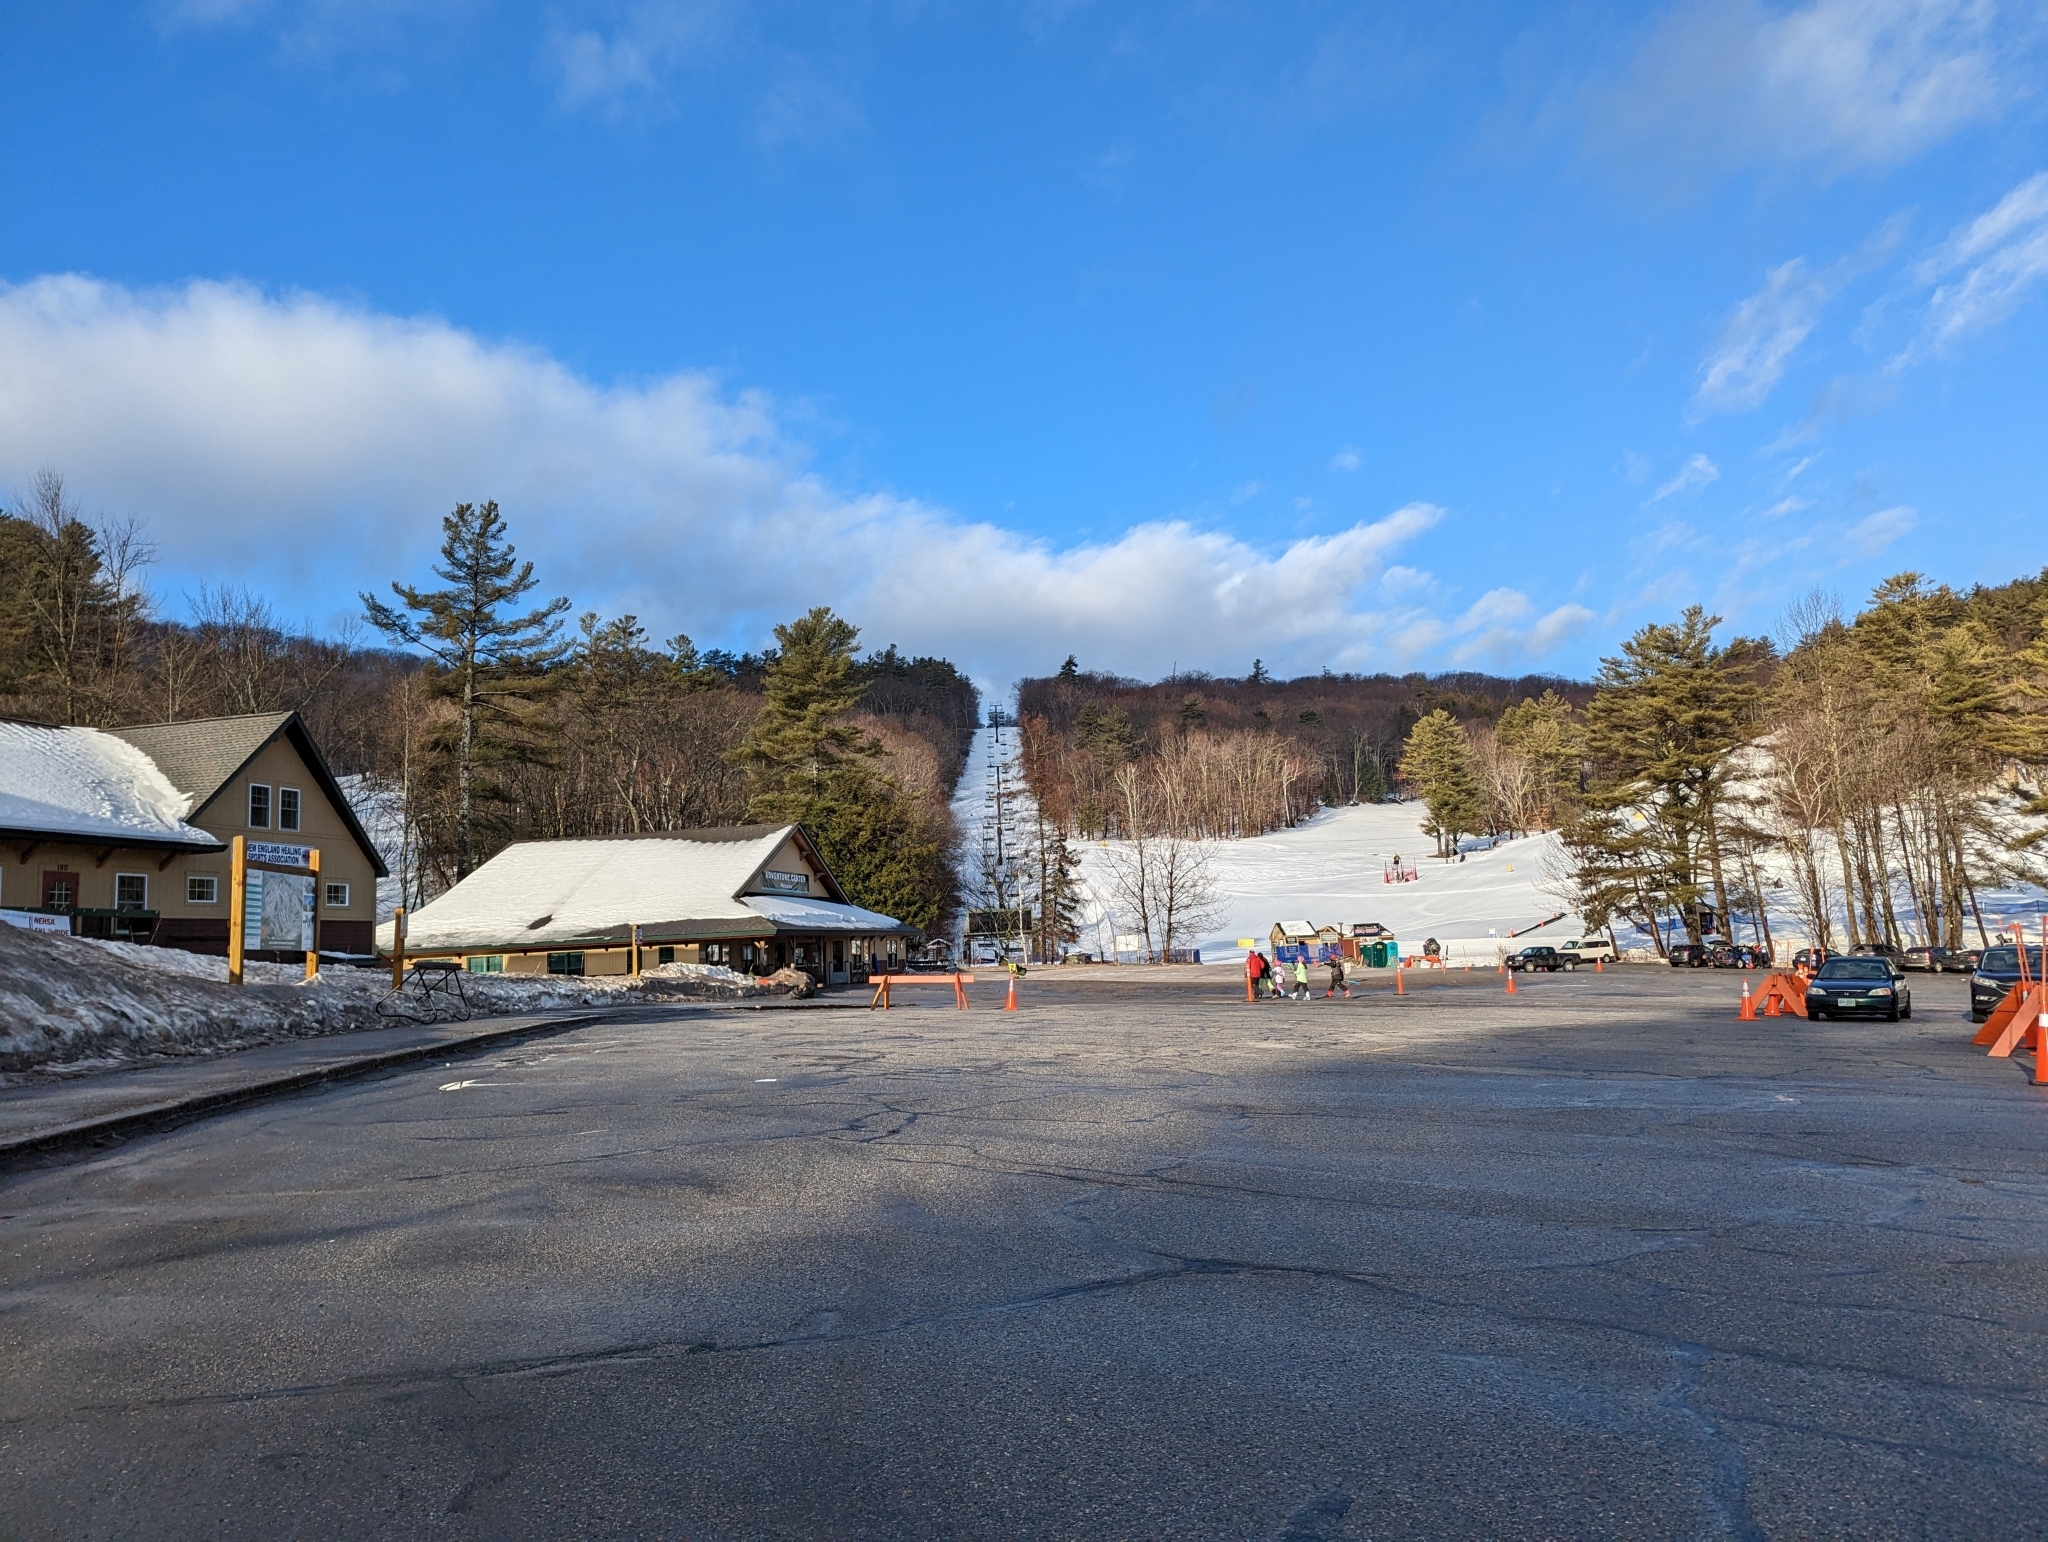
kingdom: Plantae
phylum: Tracheophyta
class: Pinopsida
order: Pinales
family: Pinaceae
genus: Pinus
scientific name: Pinus strobus
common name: Weymouth pine
